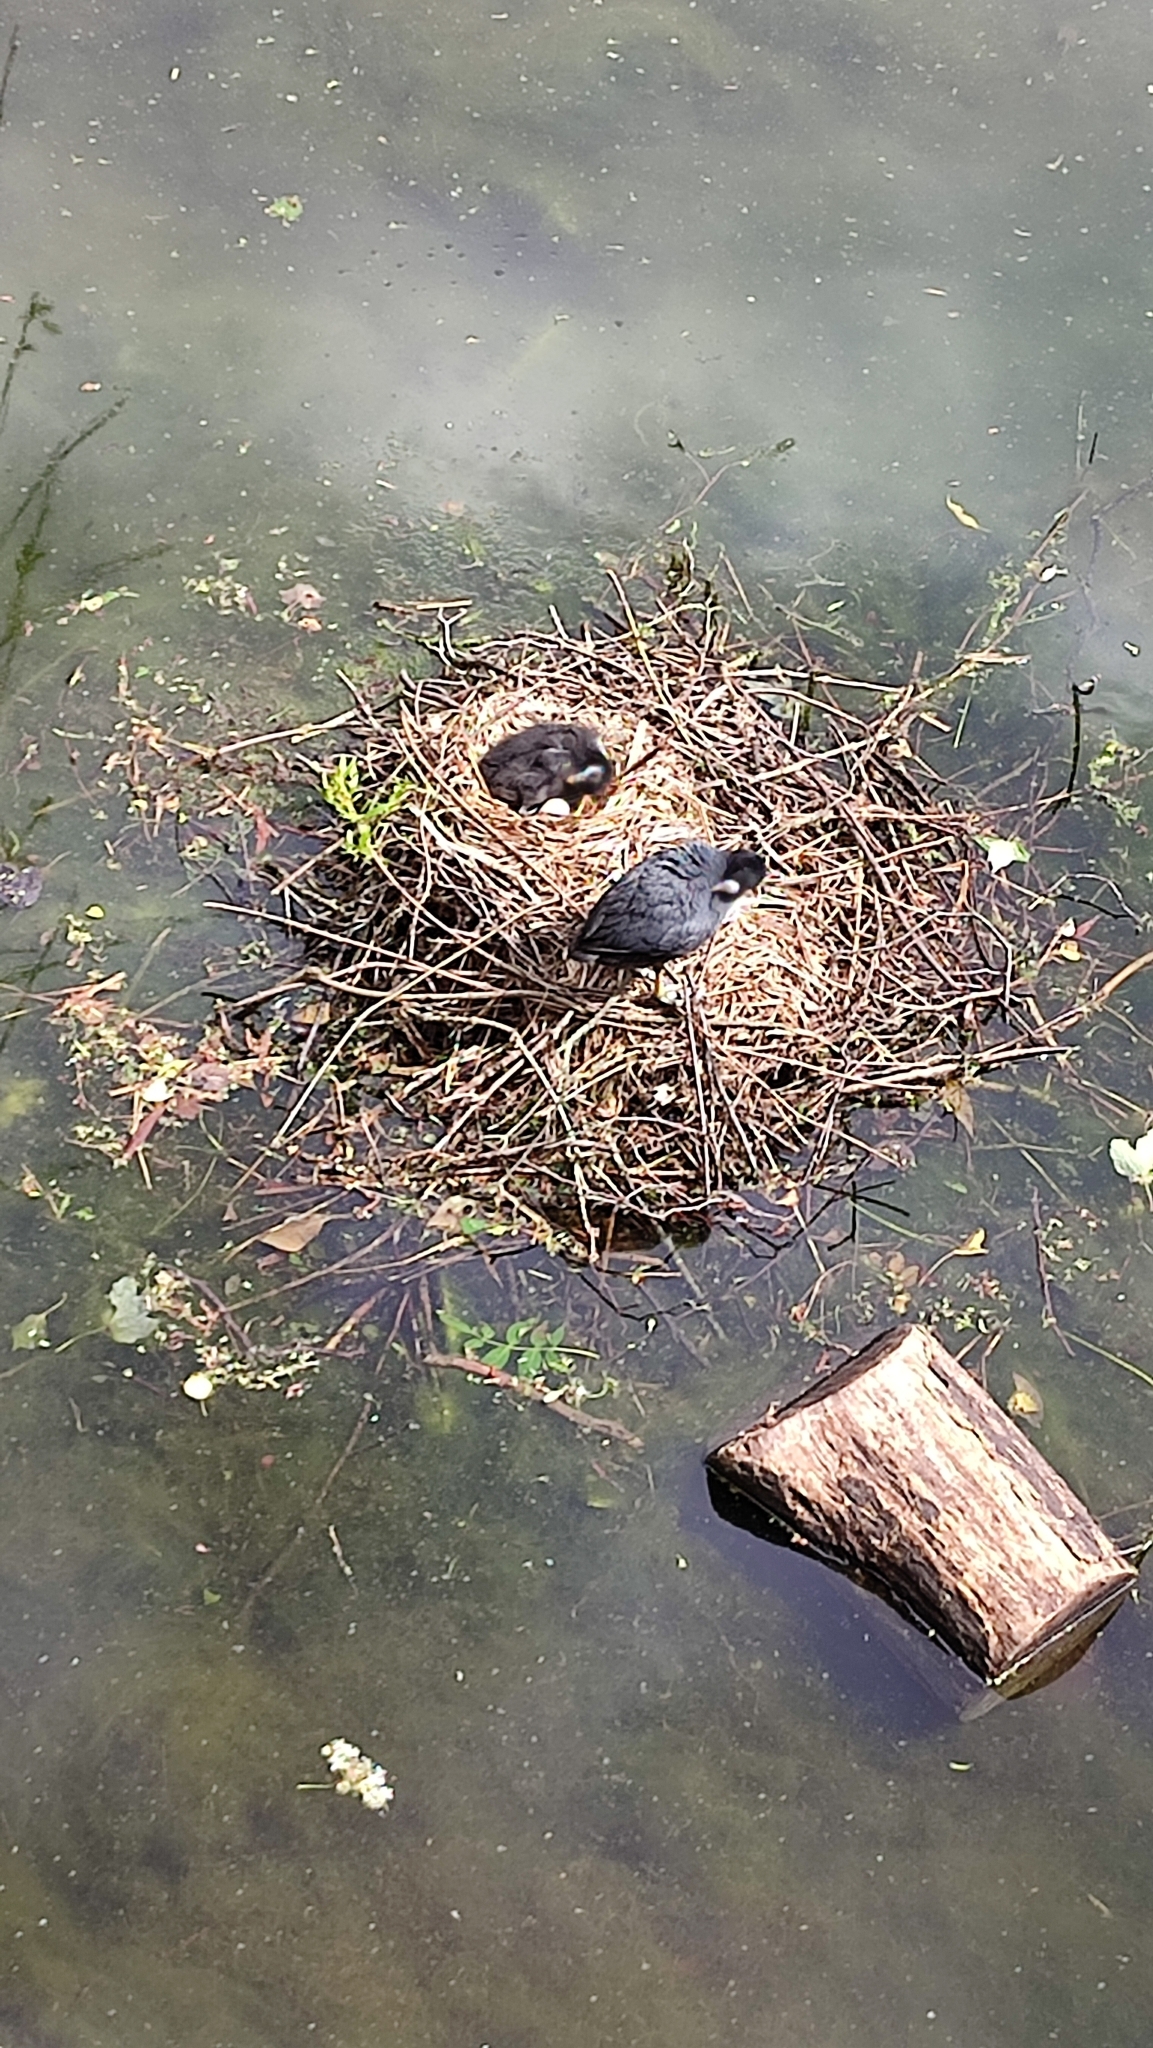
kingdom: Animalia
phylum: Chordata
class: Aves
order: Gruiformes
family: Rallidae
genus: Fulica
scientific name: Fulica atra
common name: Eurasian coot
